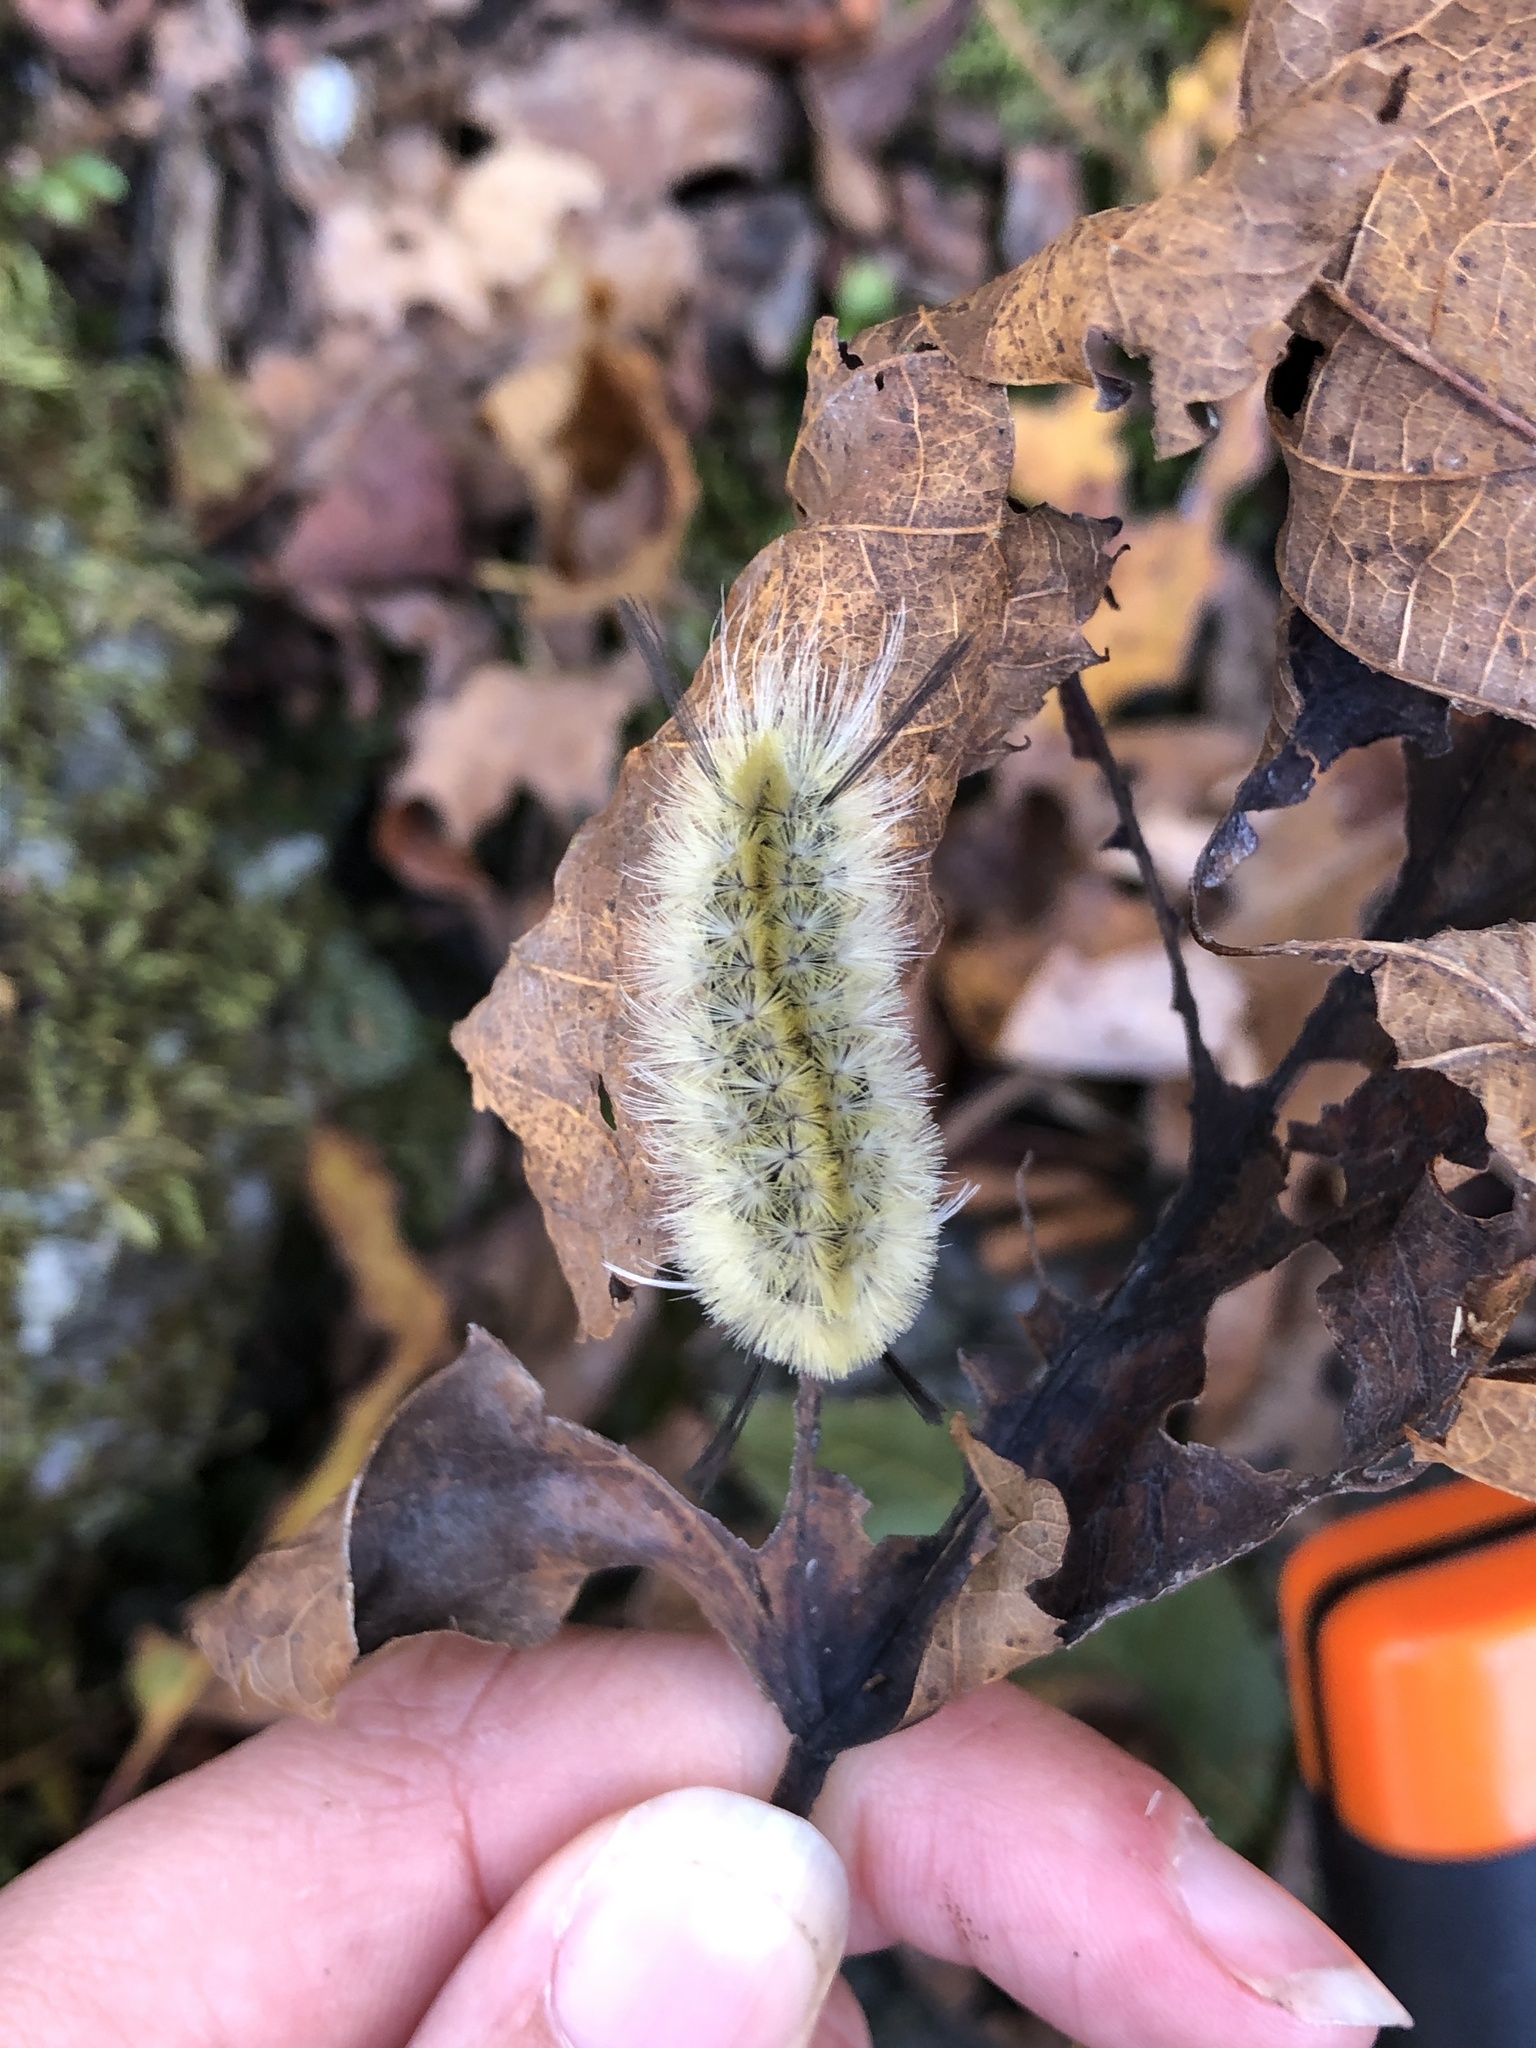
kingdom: Animalia
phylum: Arthropoda
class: Insecta
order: Lepidoptera
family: Erebidae
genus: Halysidota
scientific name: Halysidota tessellaris
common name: Banded tussock moth
